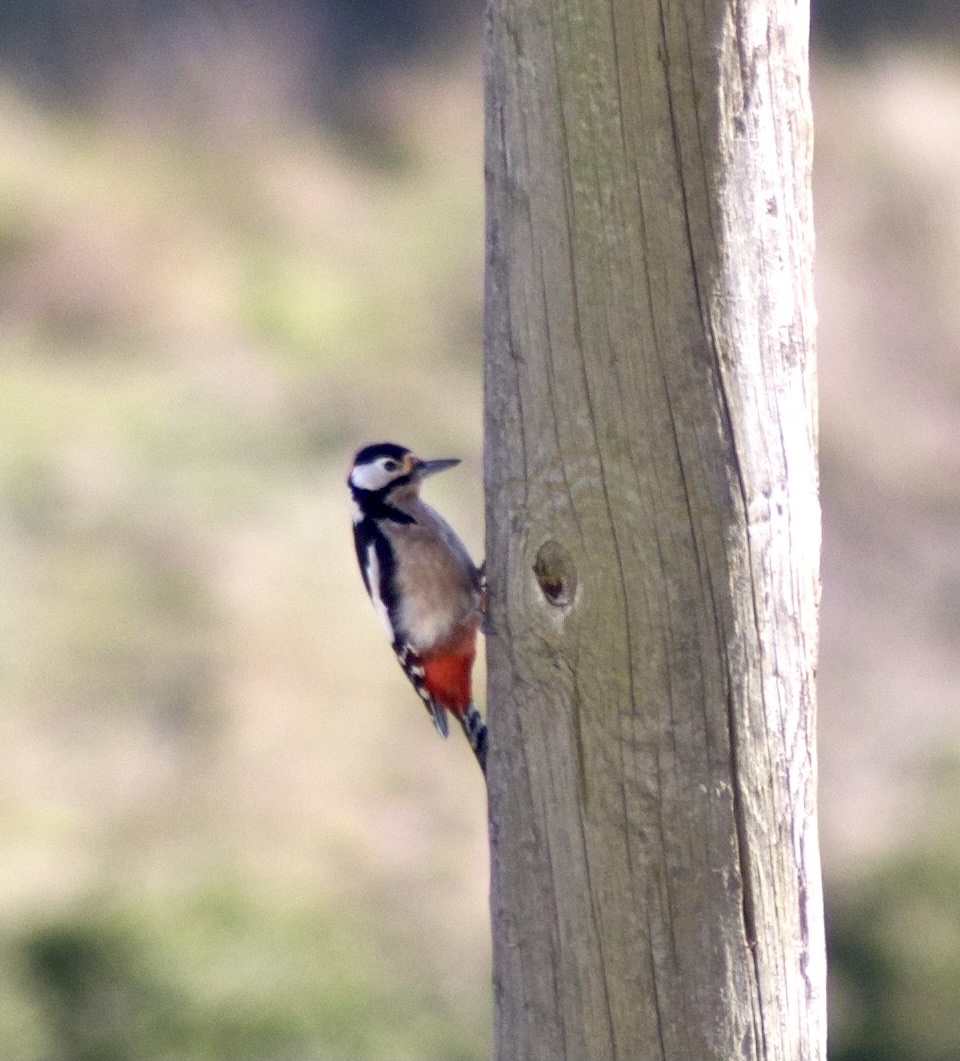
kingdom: Animalia
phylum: Chordata
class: Aves
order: Piciformes
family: Picidae
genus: Dendrocopos
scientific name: Dendrocopos major
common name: Great spotted woodpecker
